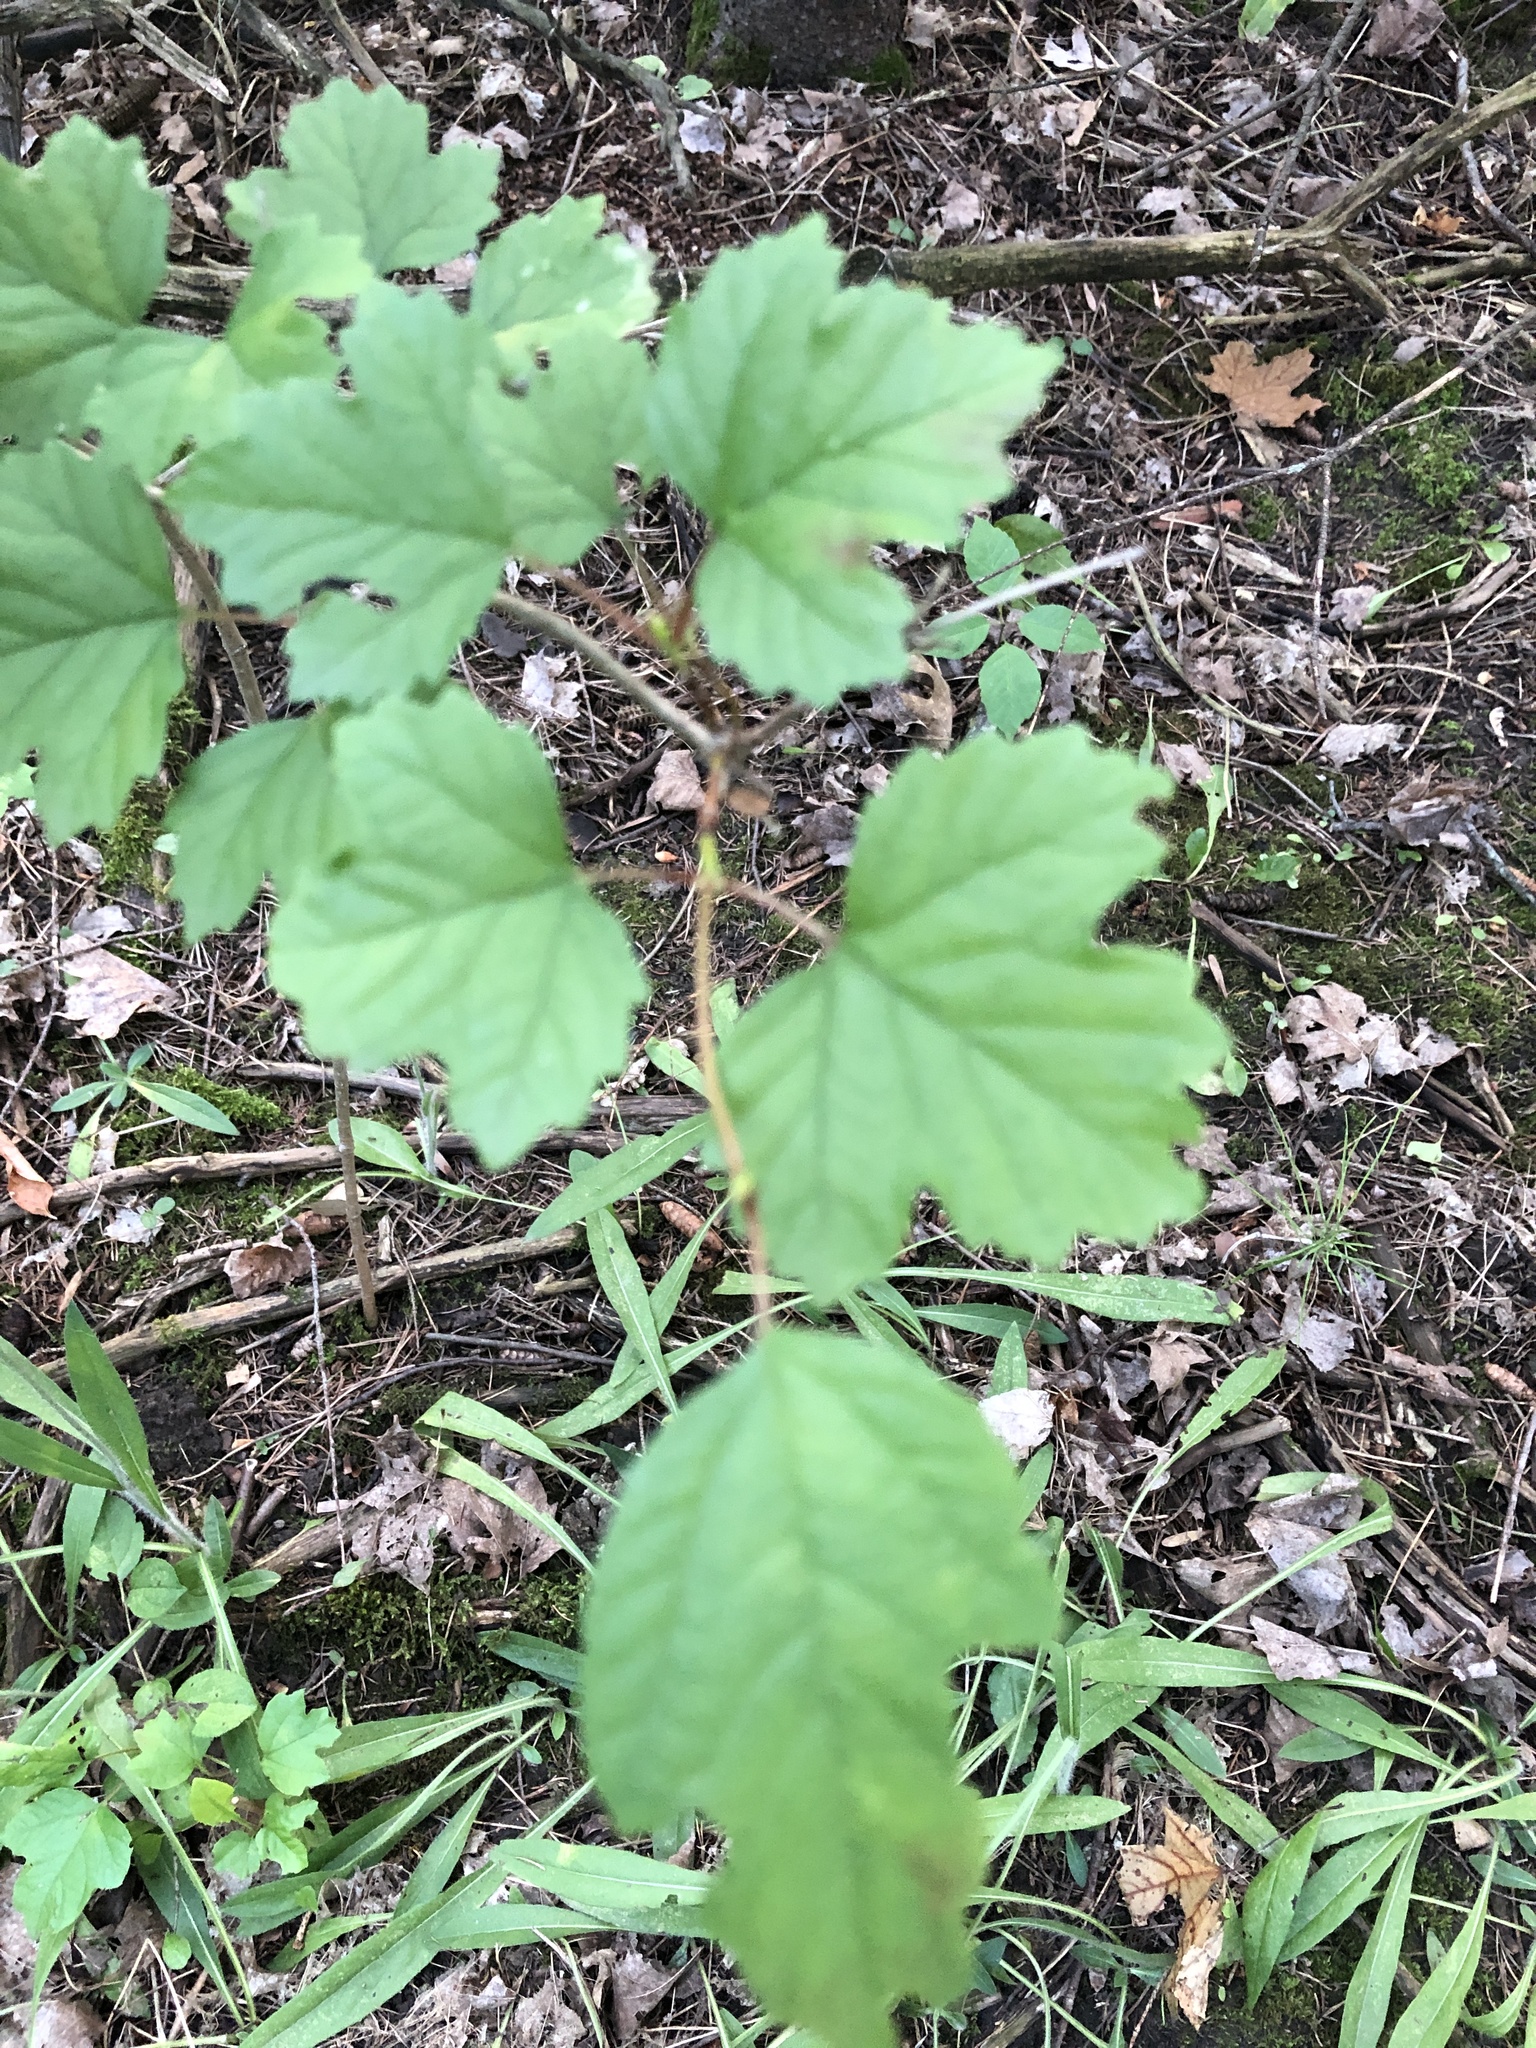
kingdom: Plantae
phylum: Tracheophyta
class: Magnoliopsida
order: Dipsacales
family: Viburnaceae
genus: Viburnum
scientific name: Viburnum opulus
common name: Guelder-rose
